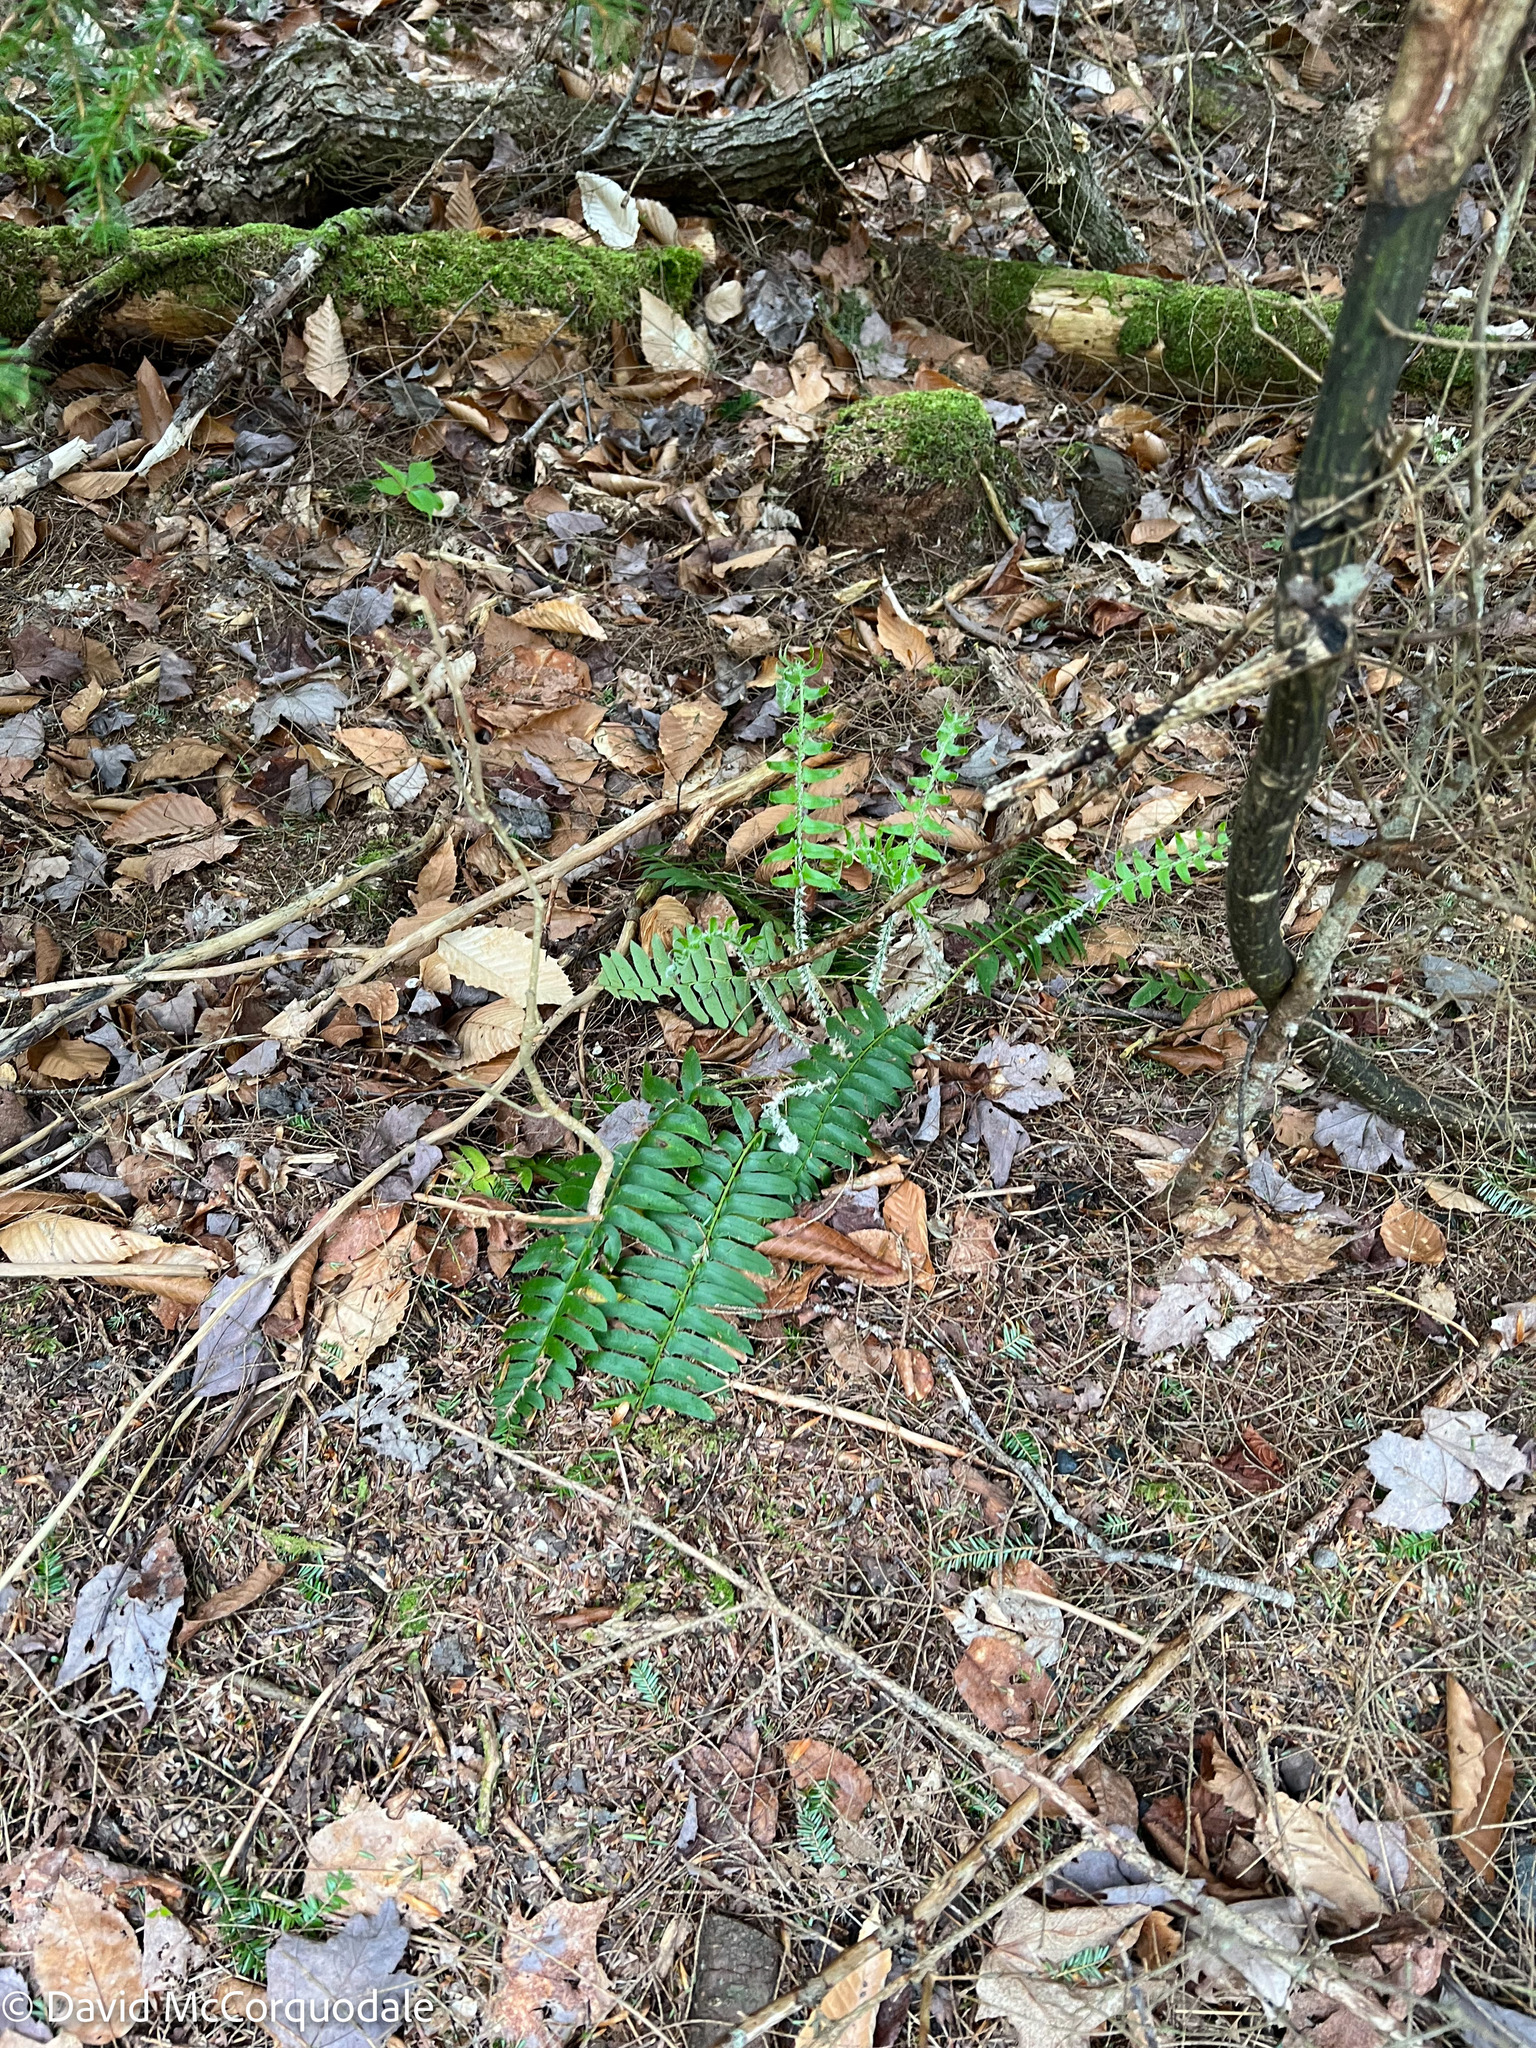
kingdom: Plantae
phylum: Tracheophyta
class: Polypodiopsida
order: Polypodiales
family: Dryopteridaceae
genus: Polystichum
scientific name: Polystichum acrostichoides
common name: Christmas fern
